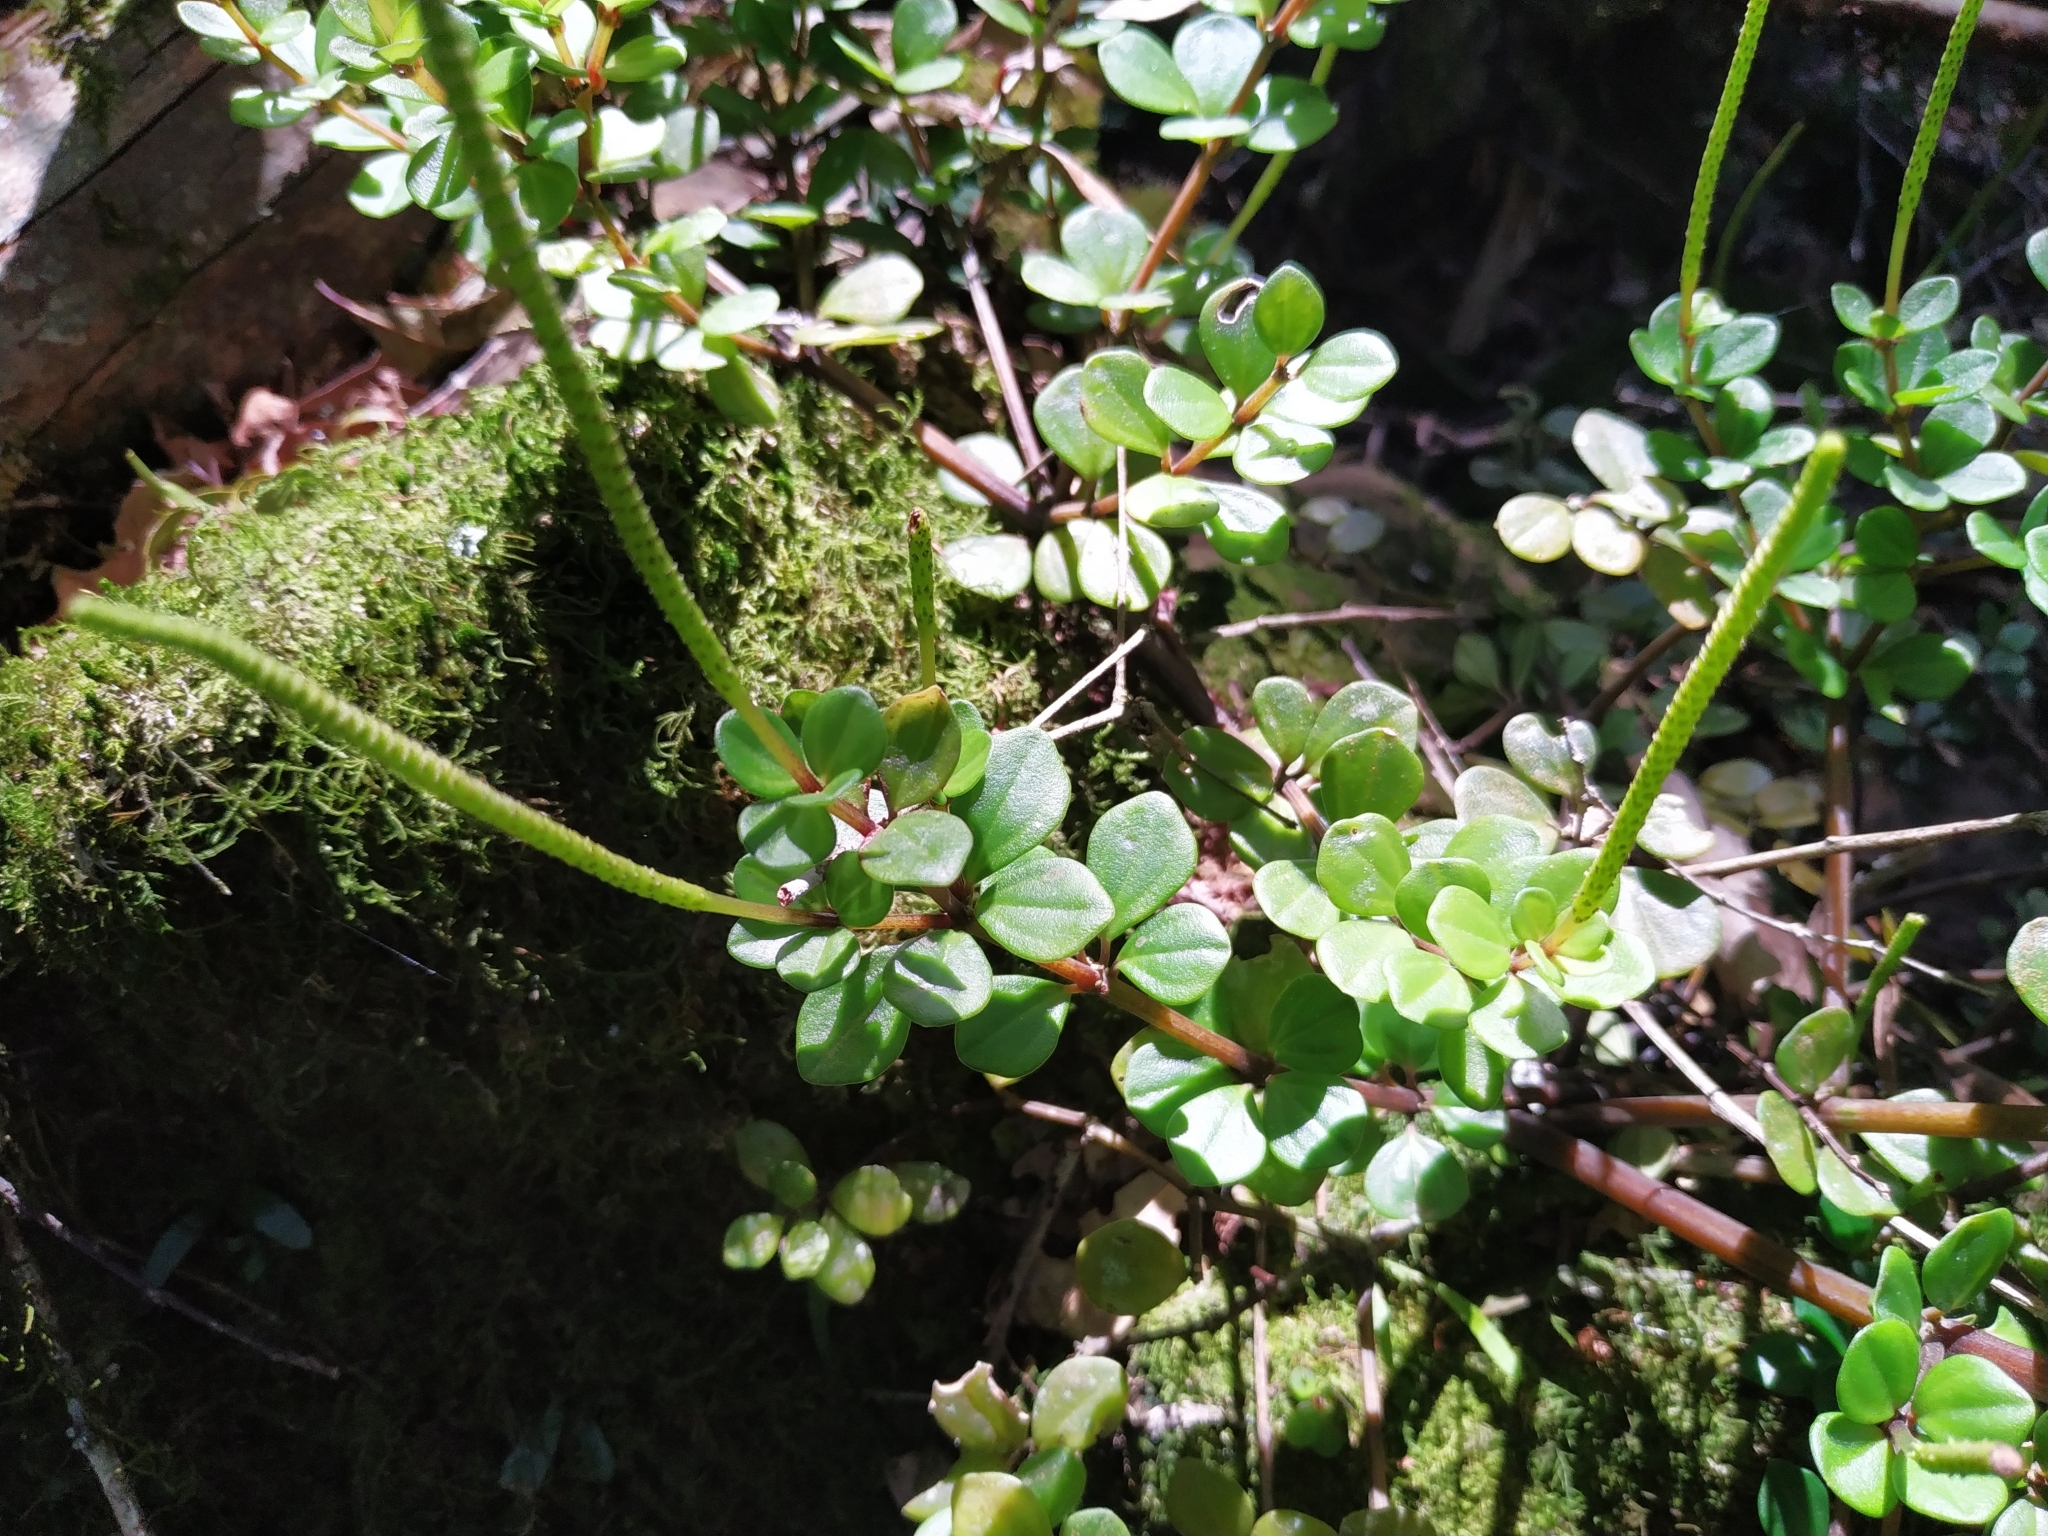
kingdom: Plantae
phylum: Tracheophyta
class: Magnoliopsida
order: Piperales
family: Piperaceae
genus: Peperomia
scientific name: Peperomia trineuroides
